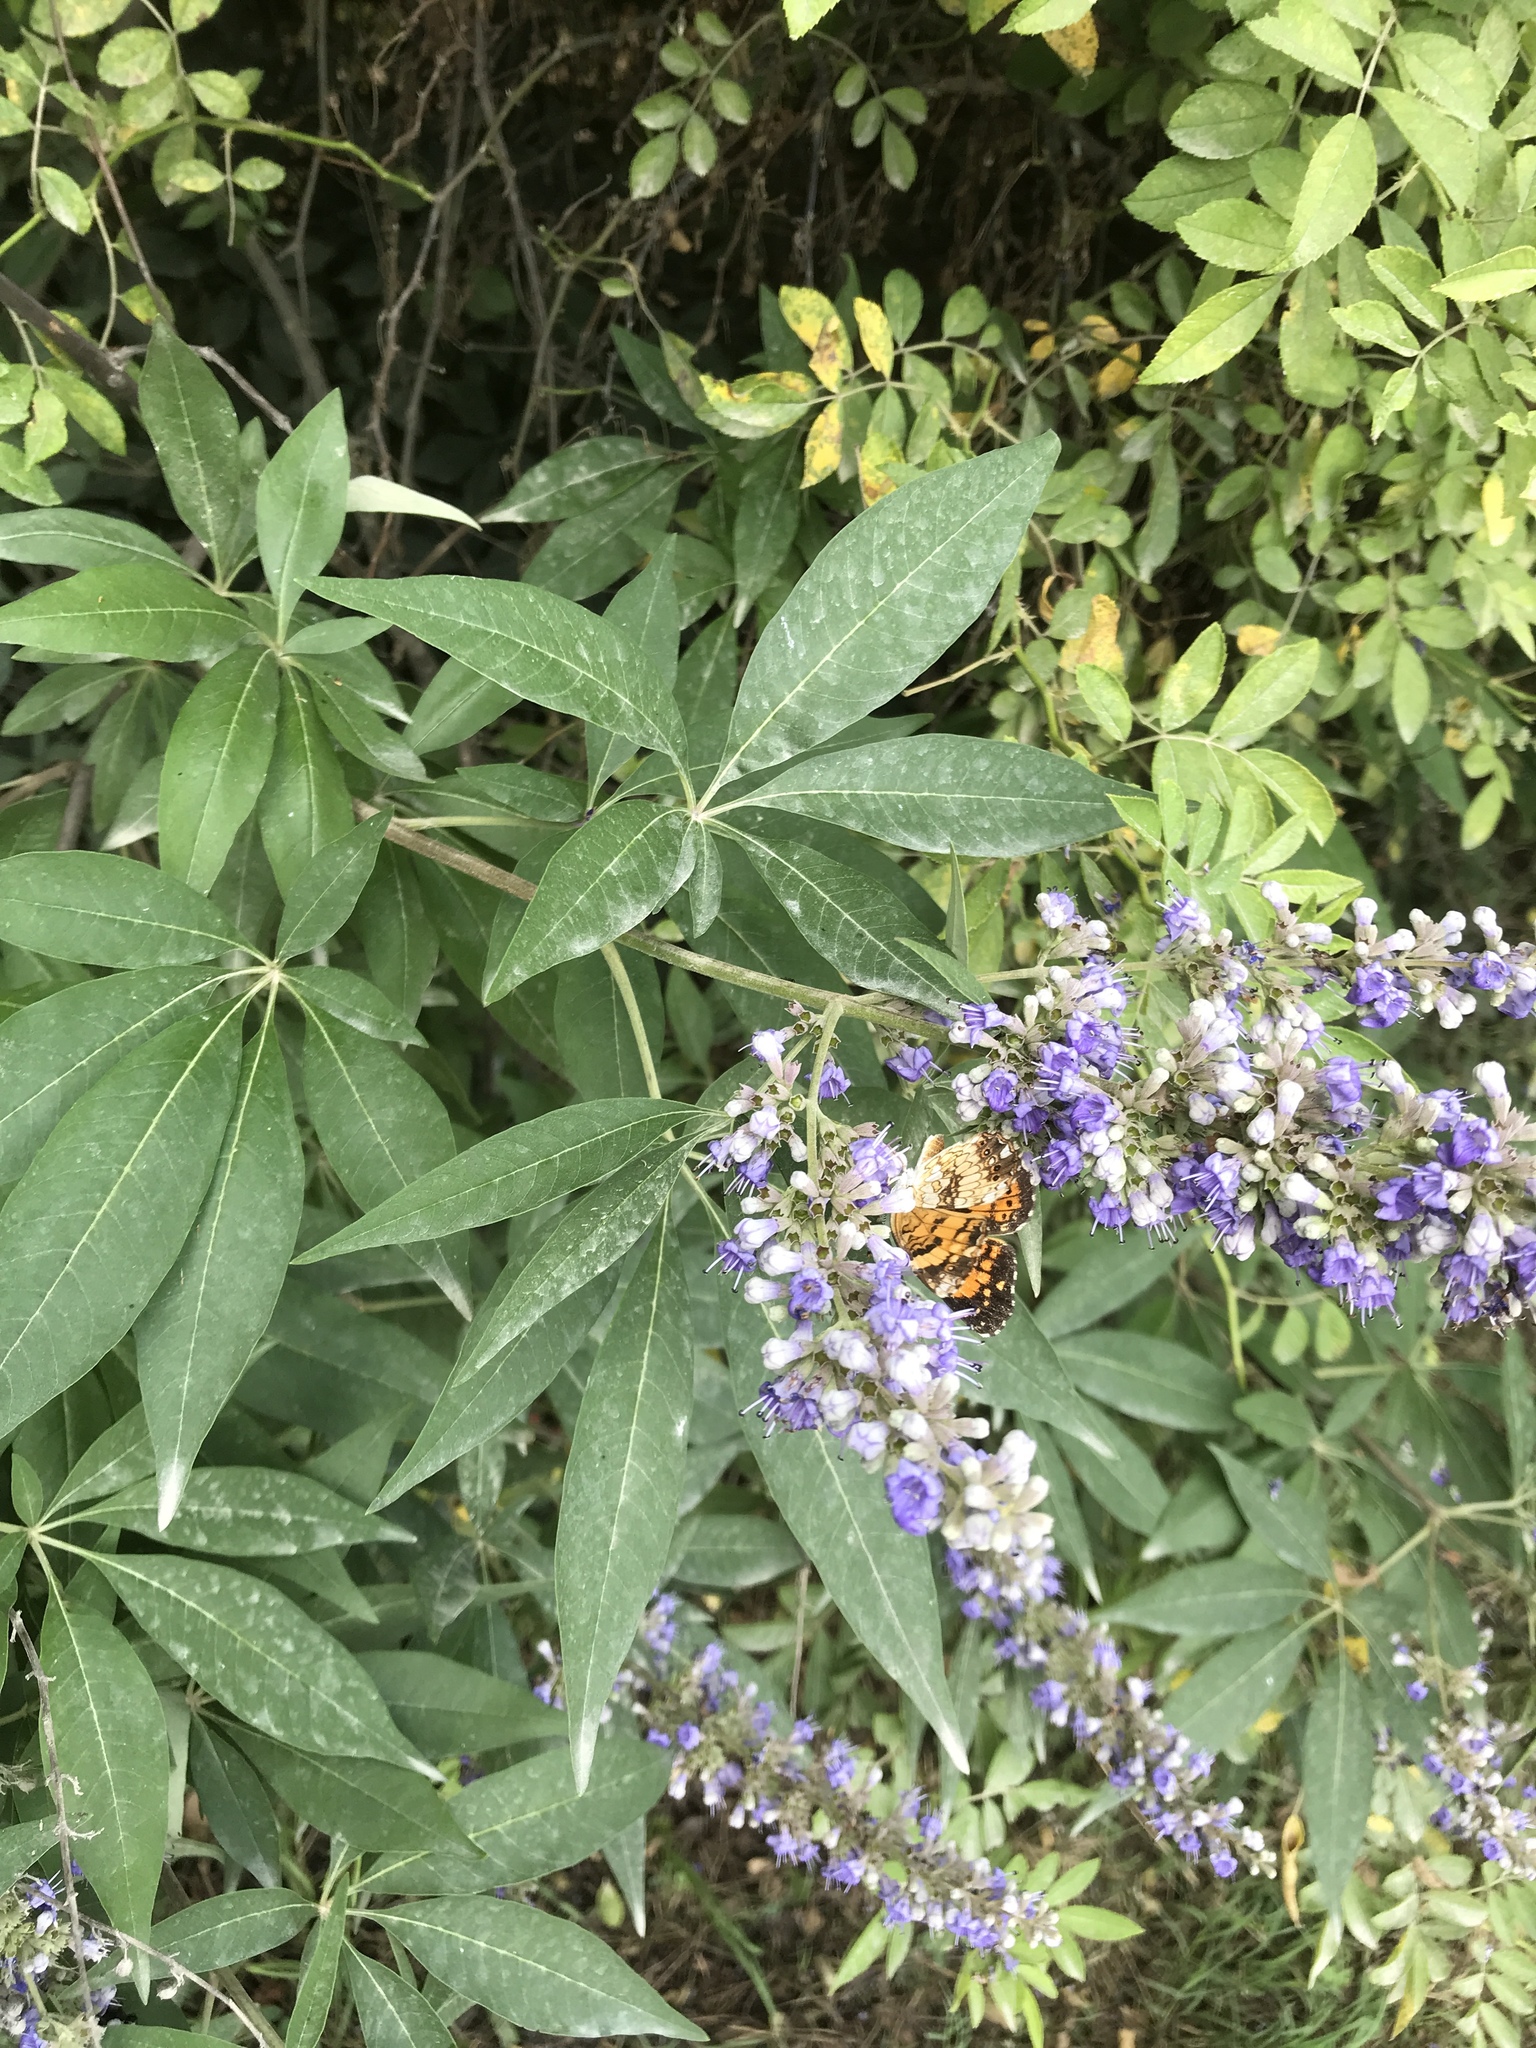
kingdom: Plantae
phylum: Tracheophyta
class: Magnoliopsida
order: Lamiales
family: Lamiaceae
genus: Vitex
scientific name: Vitex agnus-castus
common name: Chasteberry
